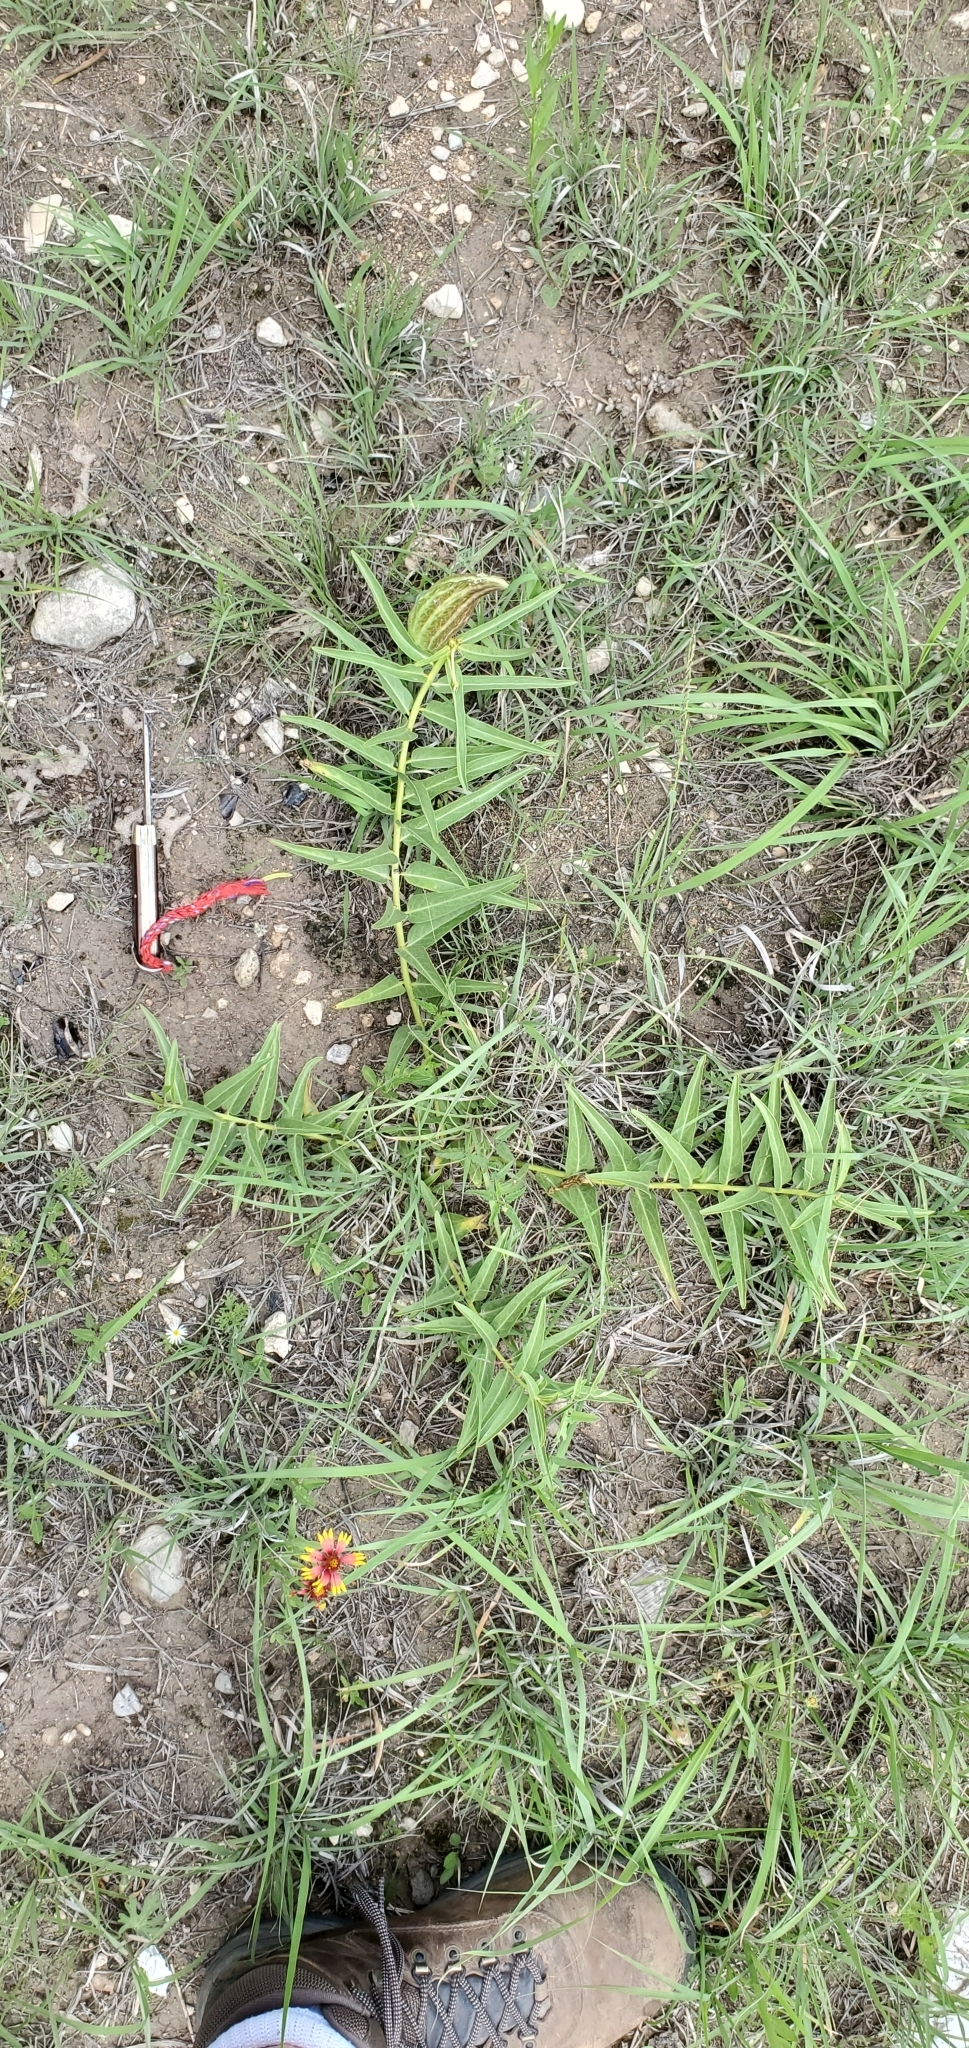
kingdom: Plantae
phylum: Tracheophyta
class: Magnoliopsida
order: Gentianales
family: Apocynaceae
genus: Asclepias
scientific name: Asclepias asperula
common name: Antelope horns
